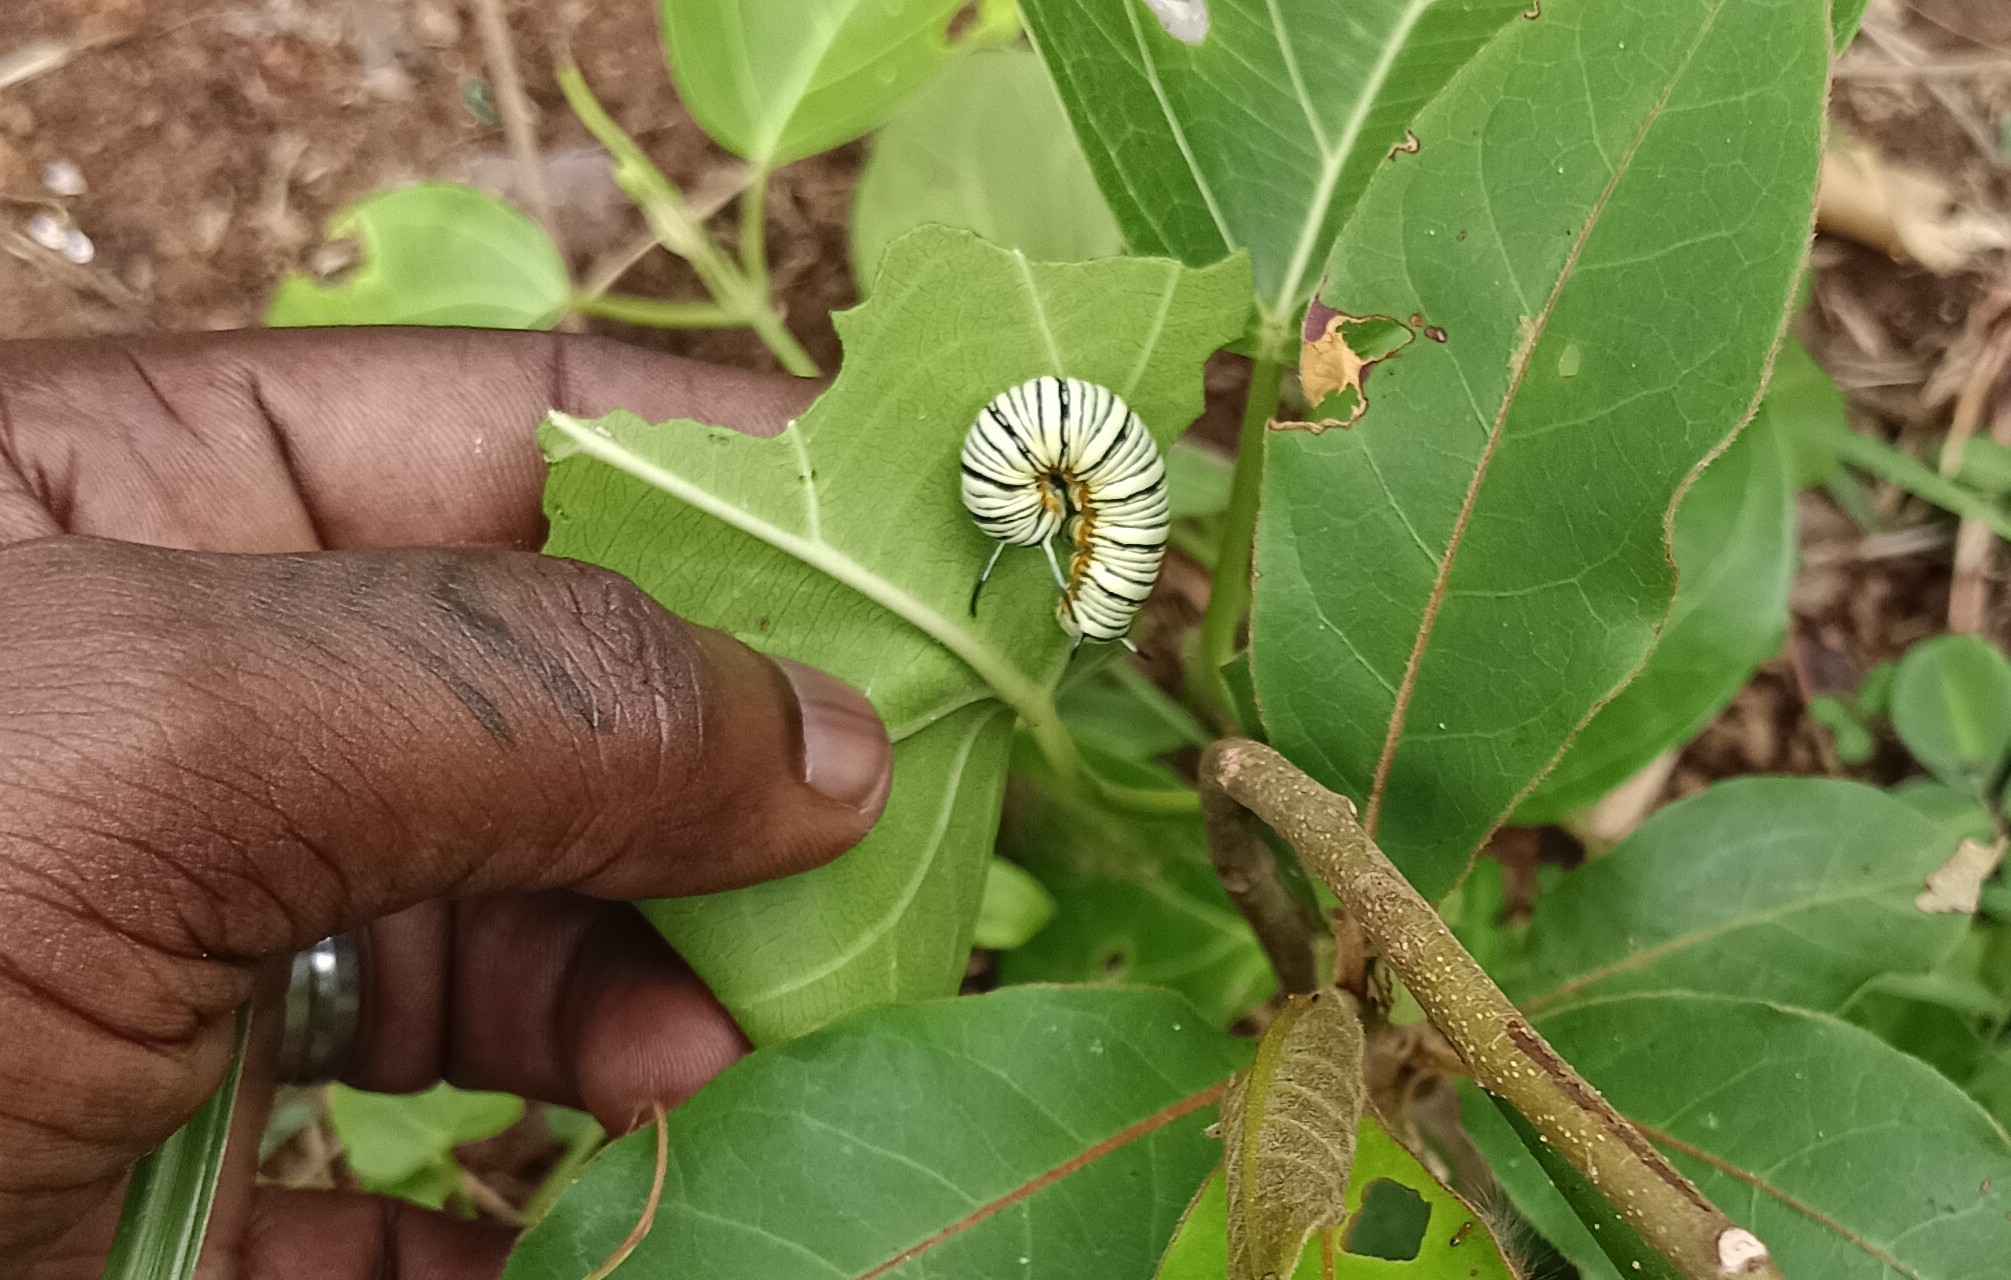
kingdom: Animalia
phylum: Arthropoda
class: Insecta
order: Lepidoptera
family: Nymphalidae
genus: Tirumala
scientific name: Tirumala limniace
